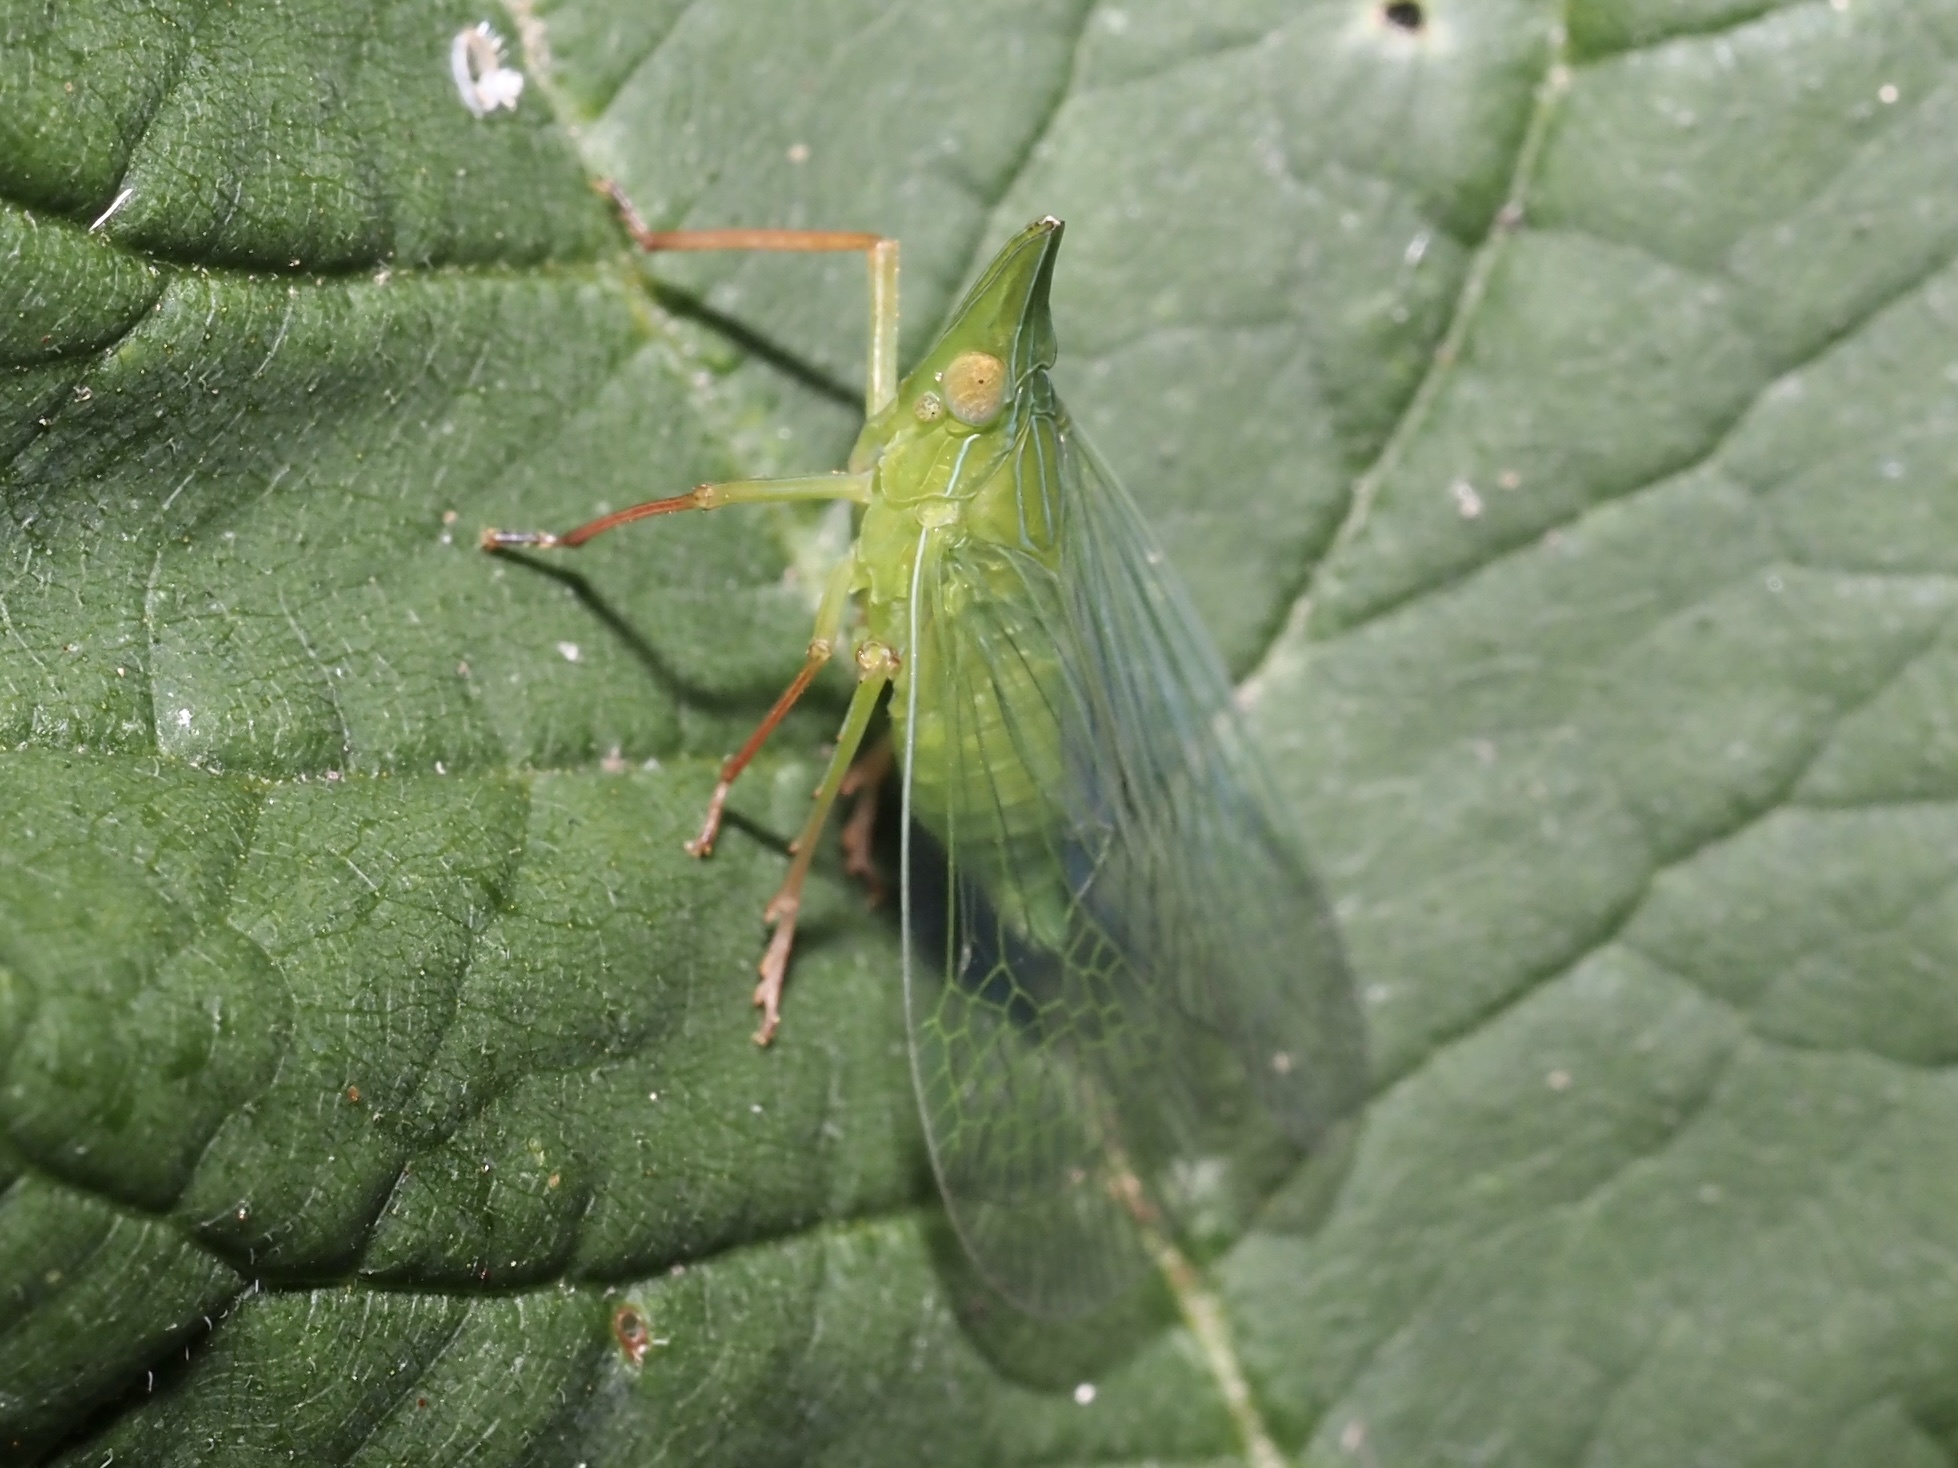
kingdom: Animalia
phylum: Arthropoda
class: Insecta
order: Hemiptera
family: Dictyopharidae
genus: Rhynchomitra
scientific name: Rhynchomitra microrhina
